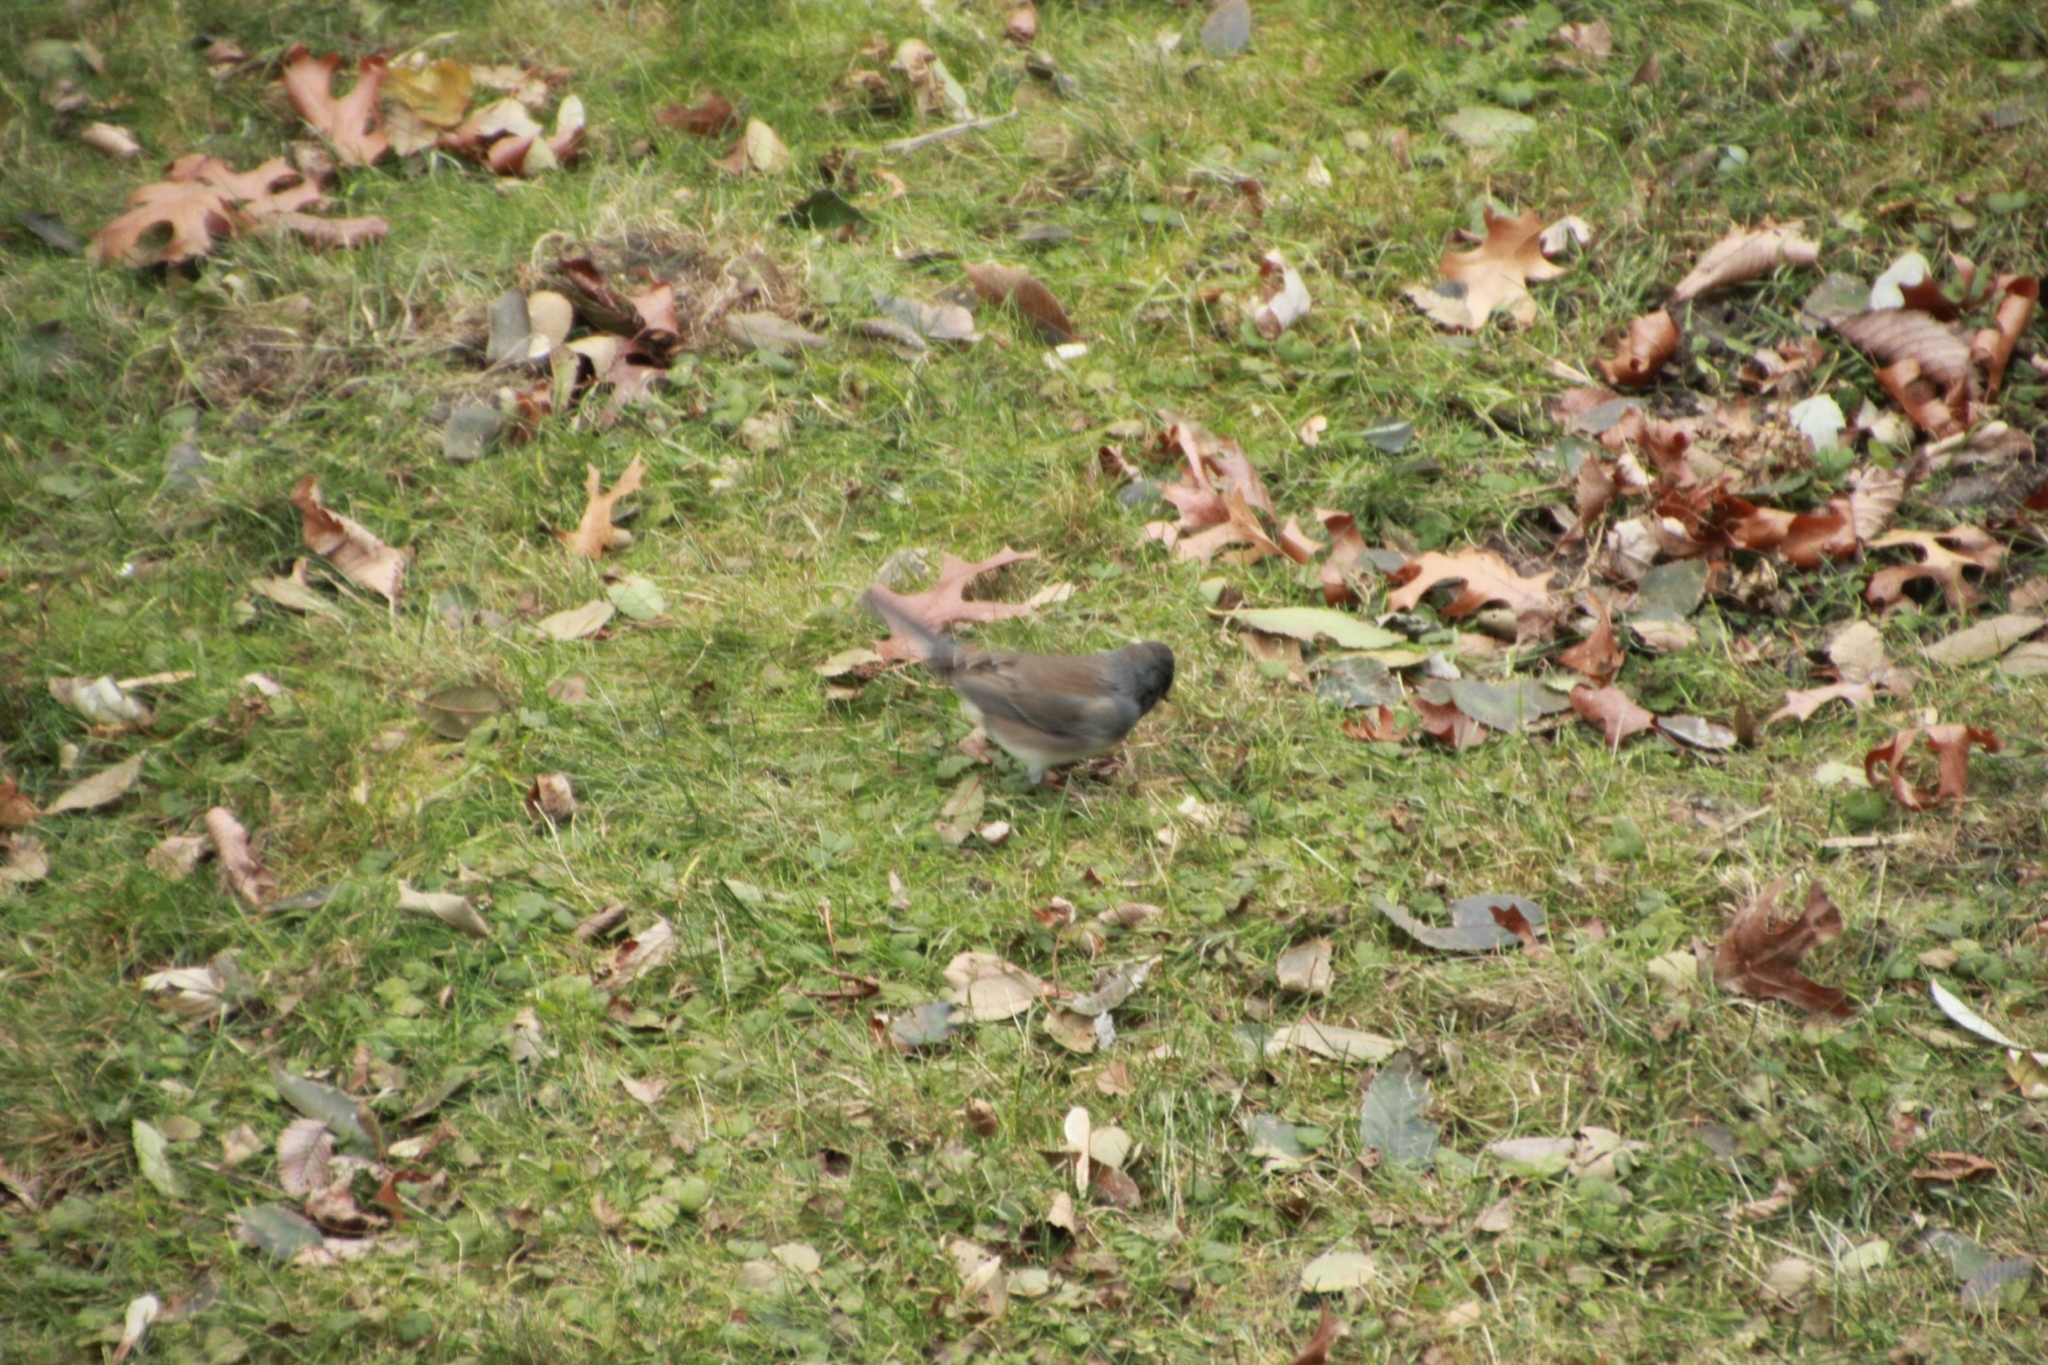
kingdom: Animalia
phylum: Chordata
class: Aves
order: Passeriformes
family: Passerellidae
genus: Junco
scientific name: Junco hyemalis
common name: Dark-eyed junco
